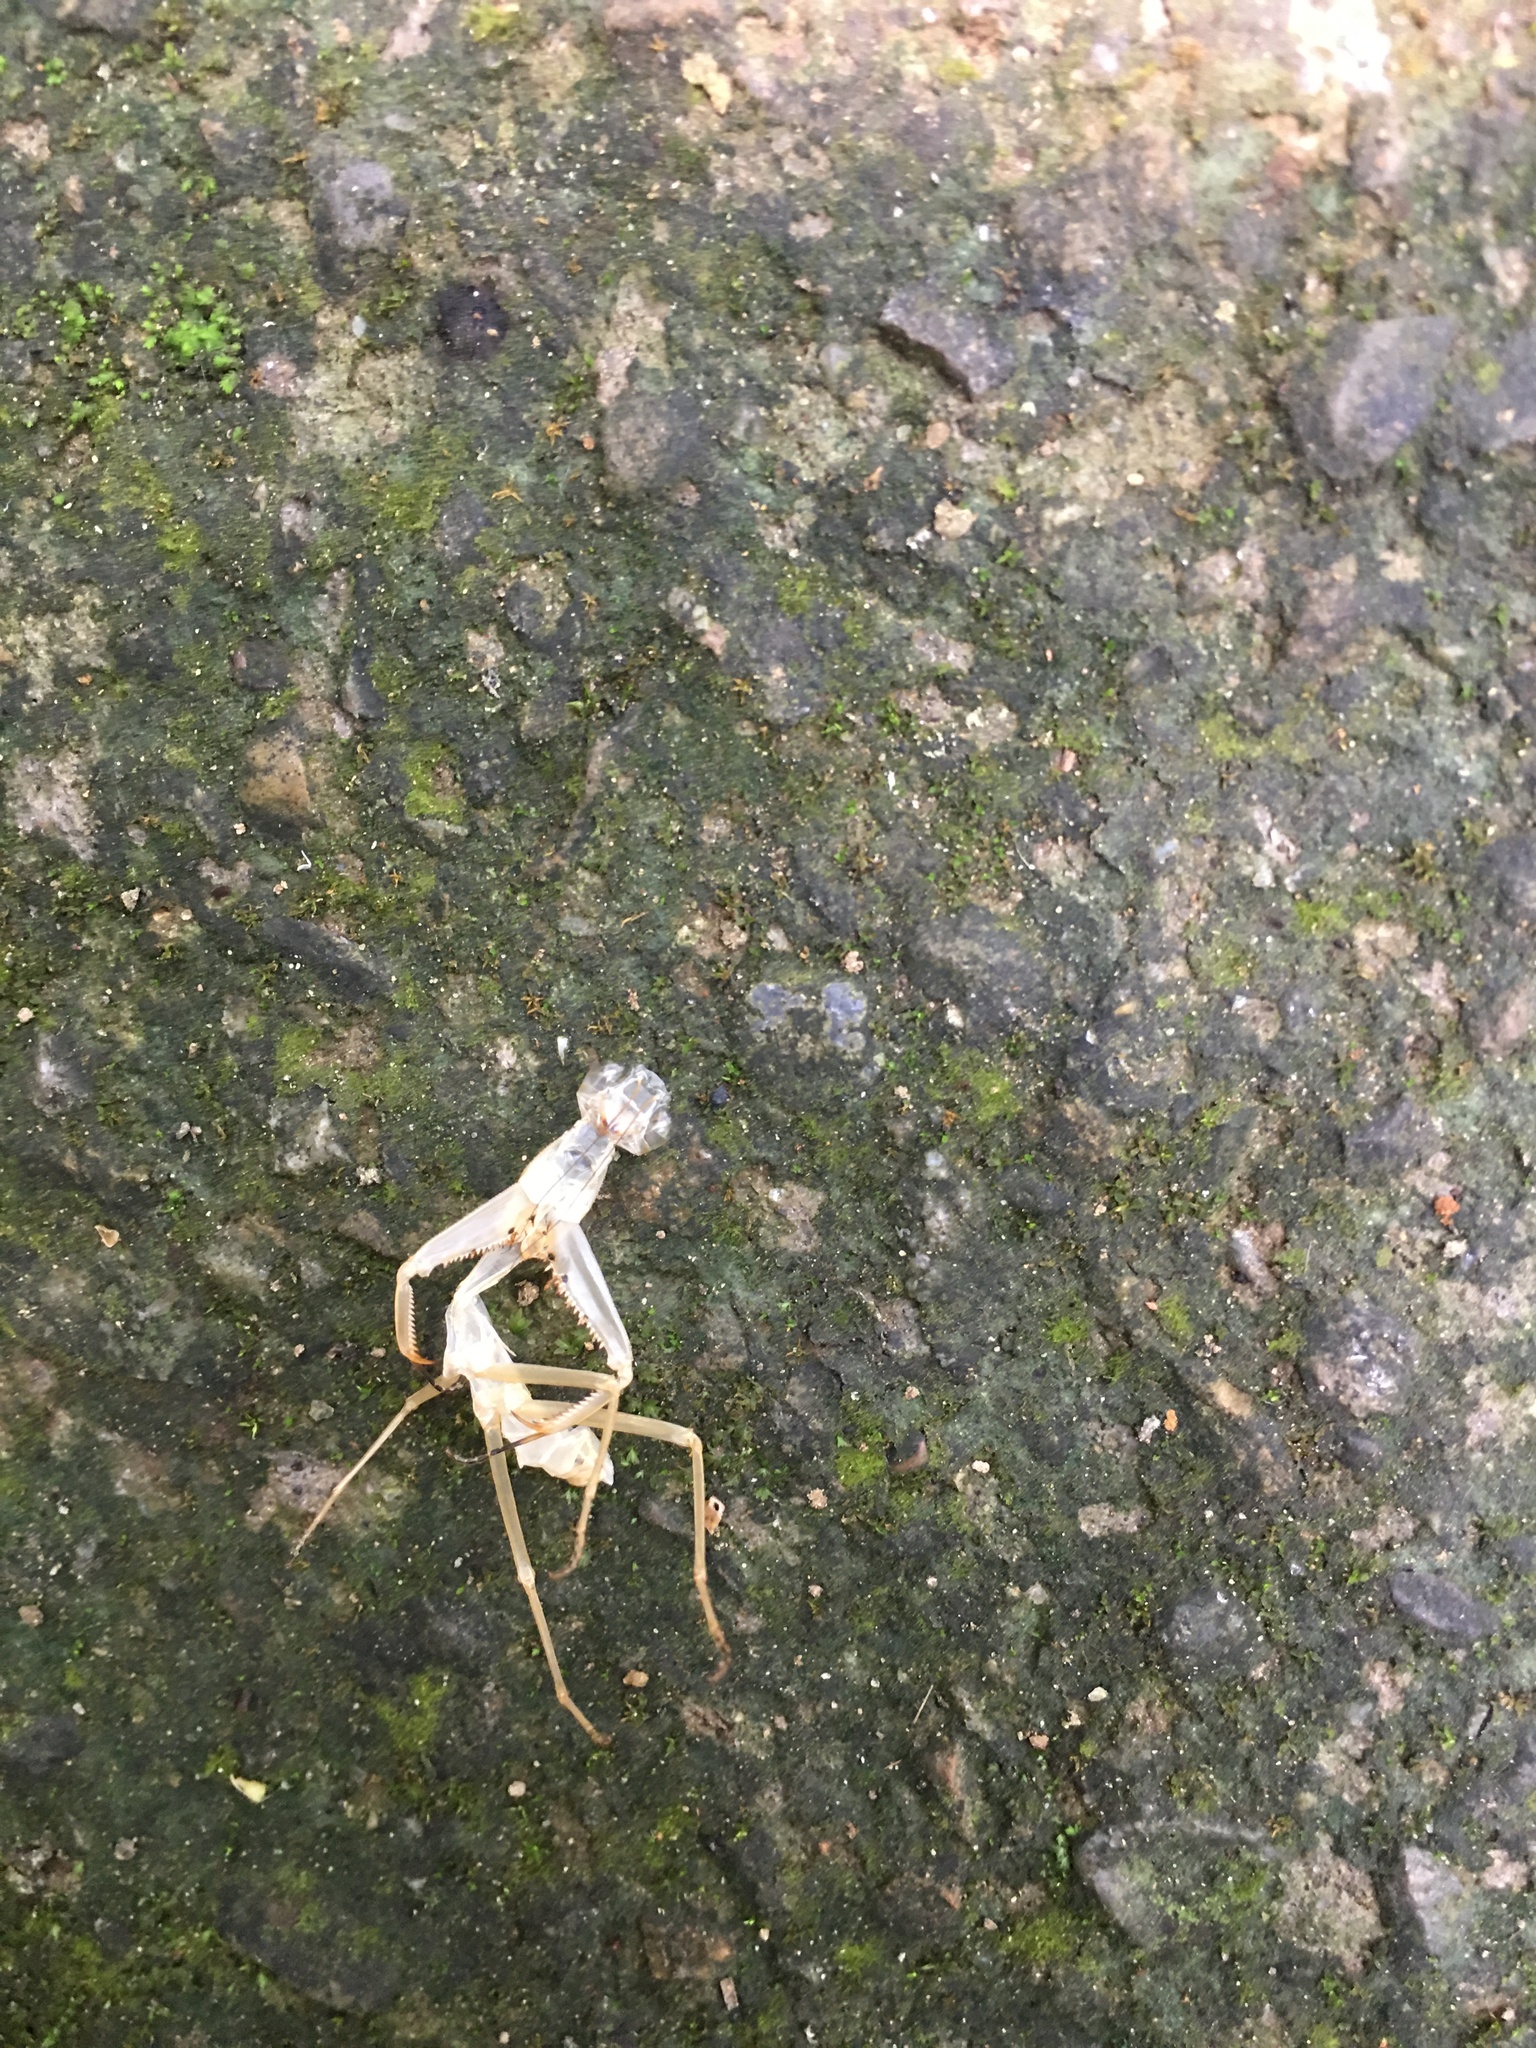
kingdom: Animalia
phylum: Arthropoda
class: Insecta
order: Mantodea
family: Mantidae
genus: Titanodula
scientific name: Titanodula formosana
